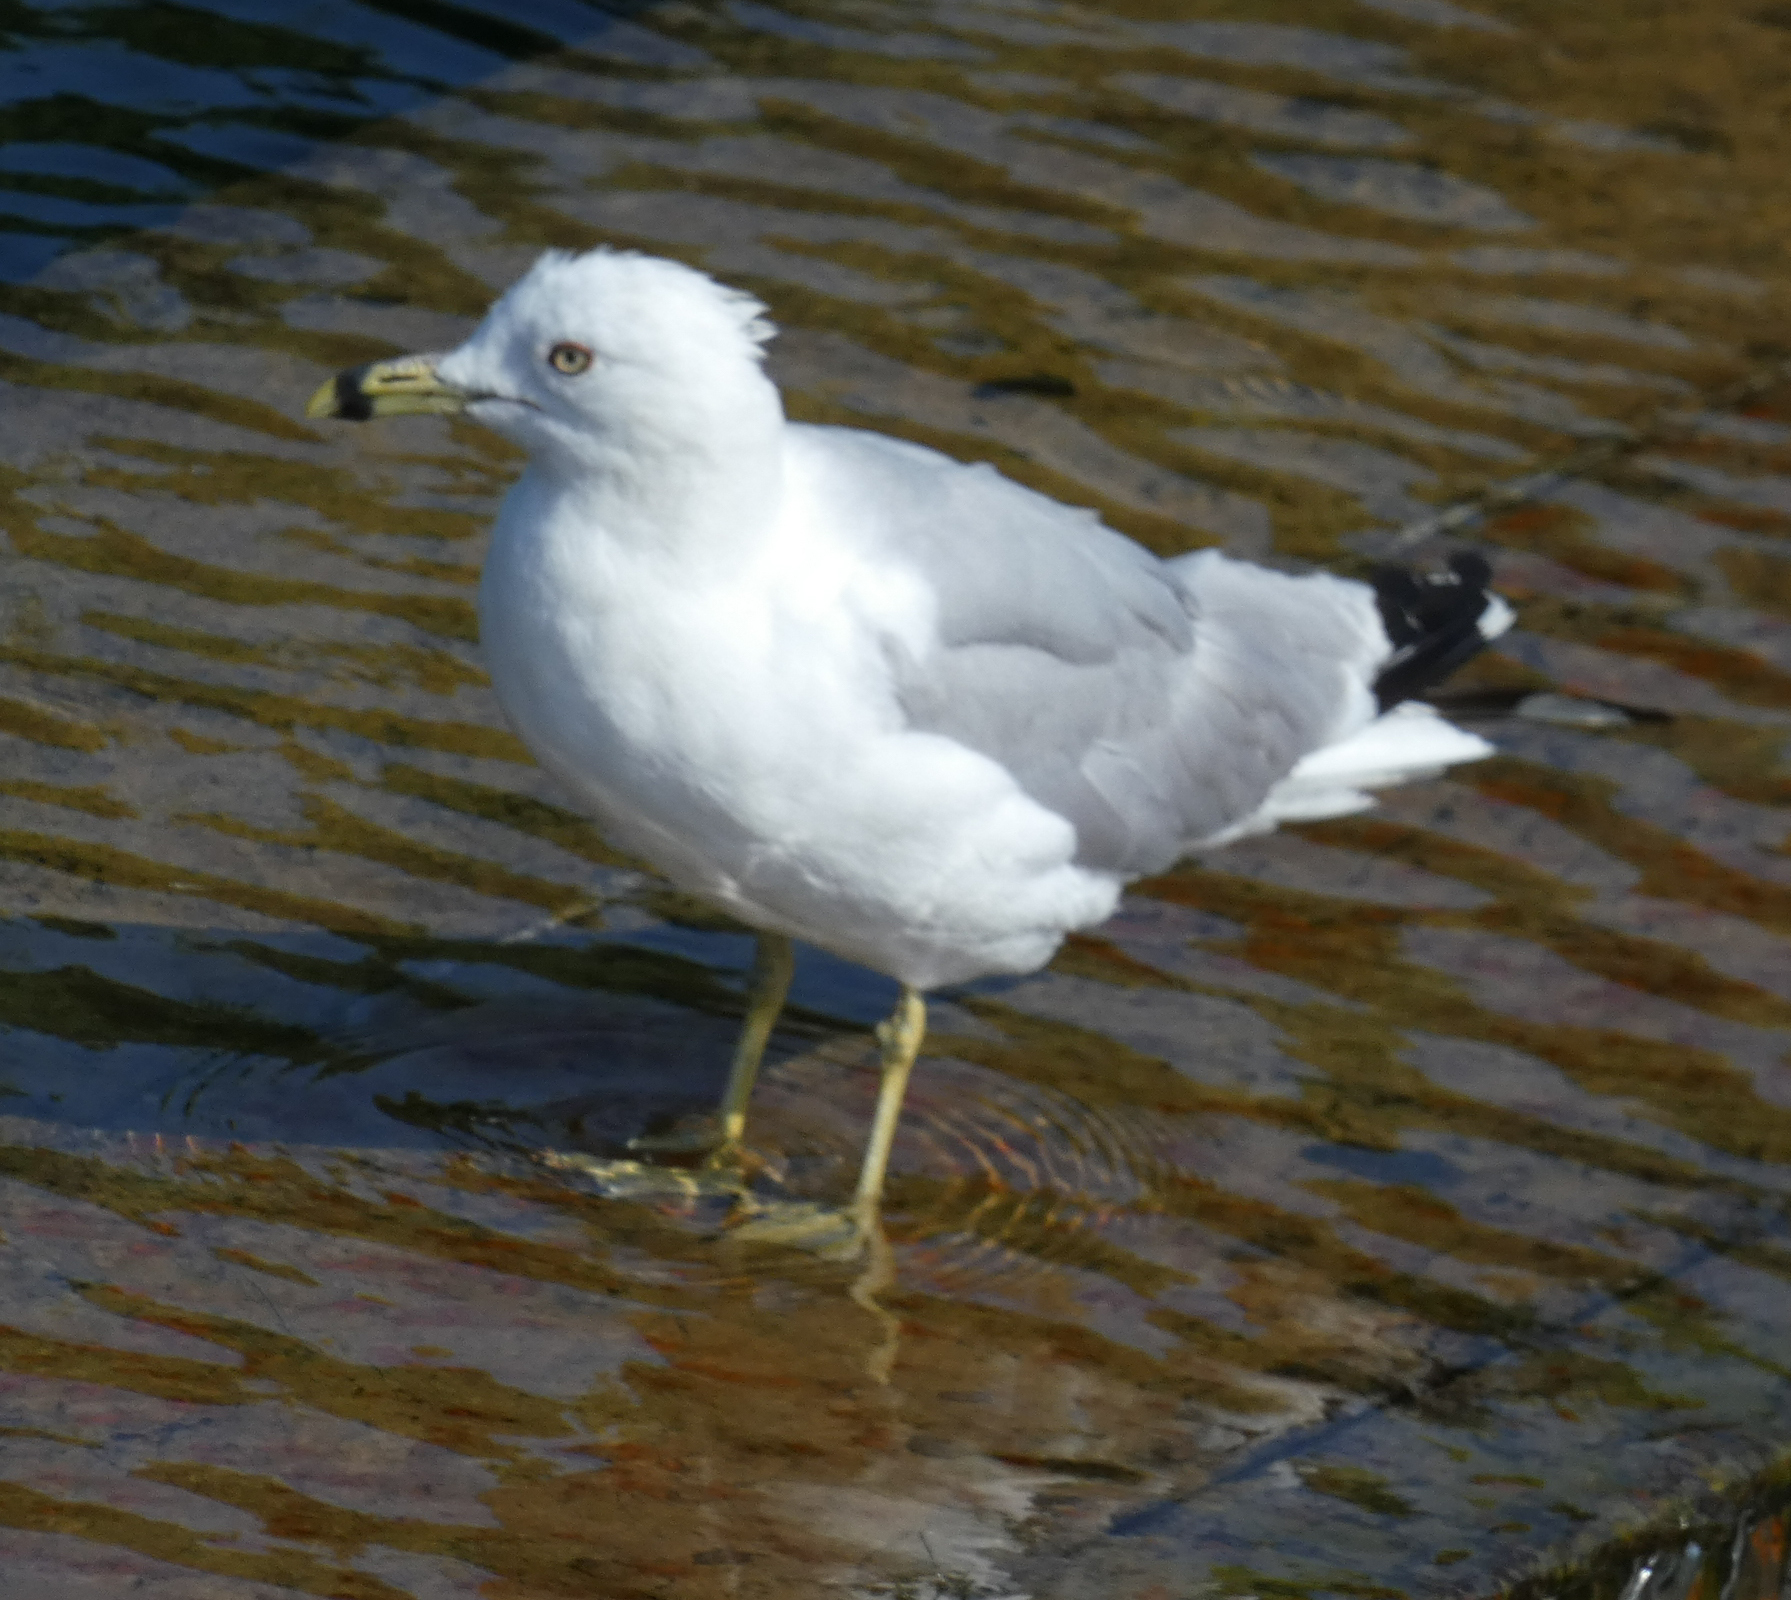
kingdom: Animalia
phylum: Chordata
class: Aves
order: Charadriiformes
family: Laridae
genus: Larus
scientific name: Larus delawarensis
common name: Ring-billed gull
